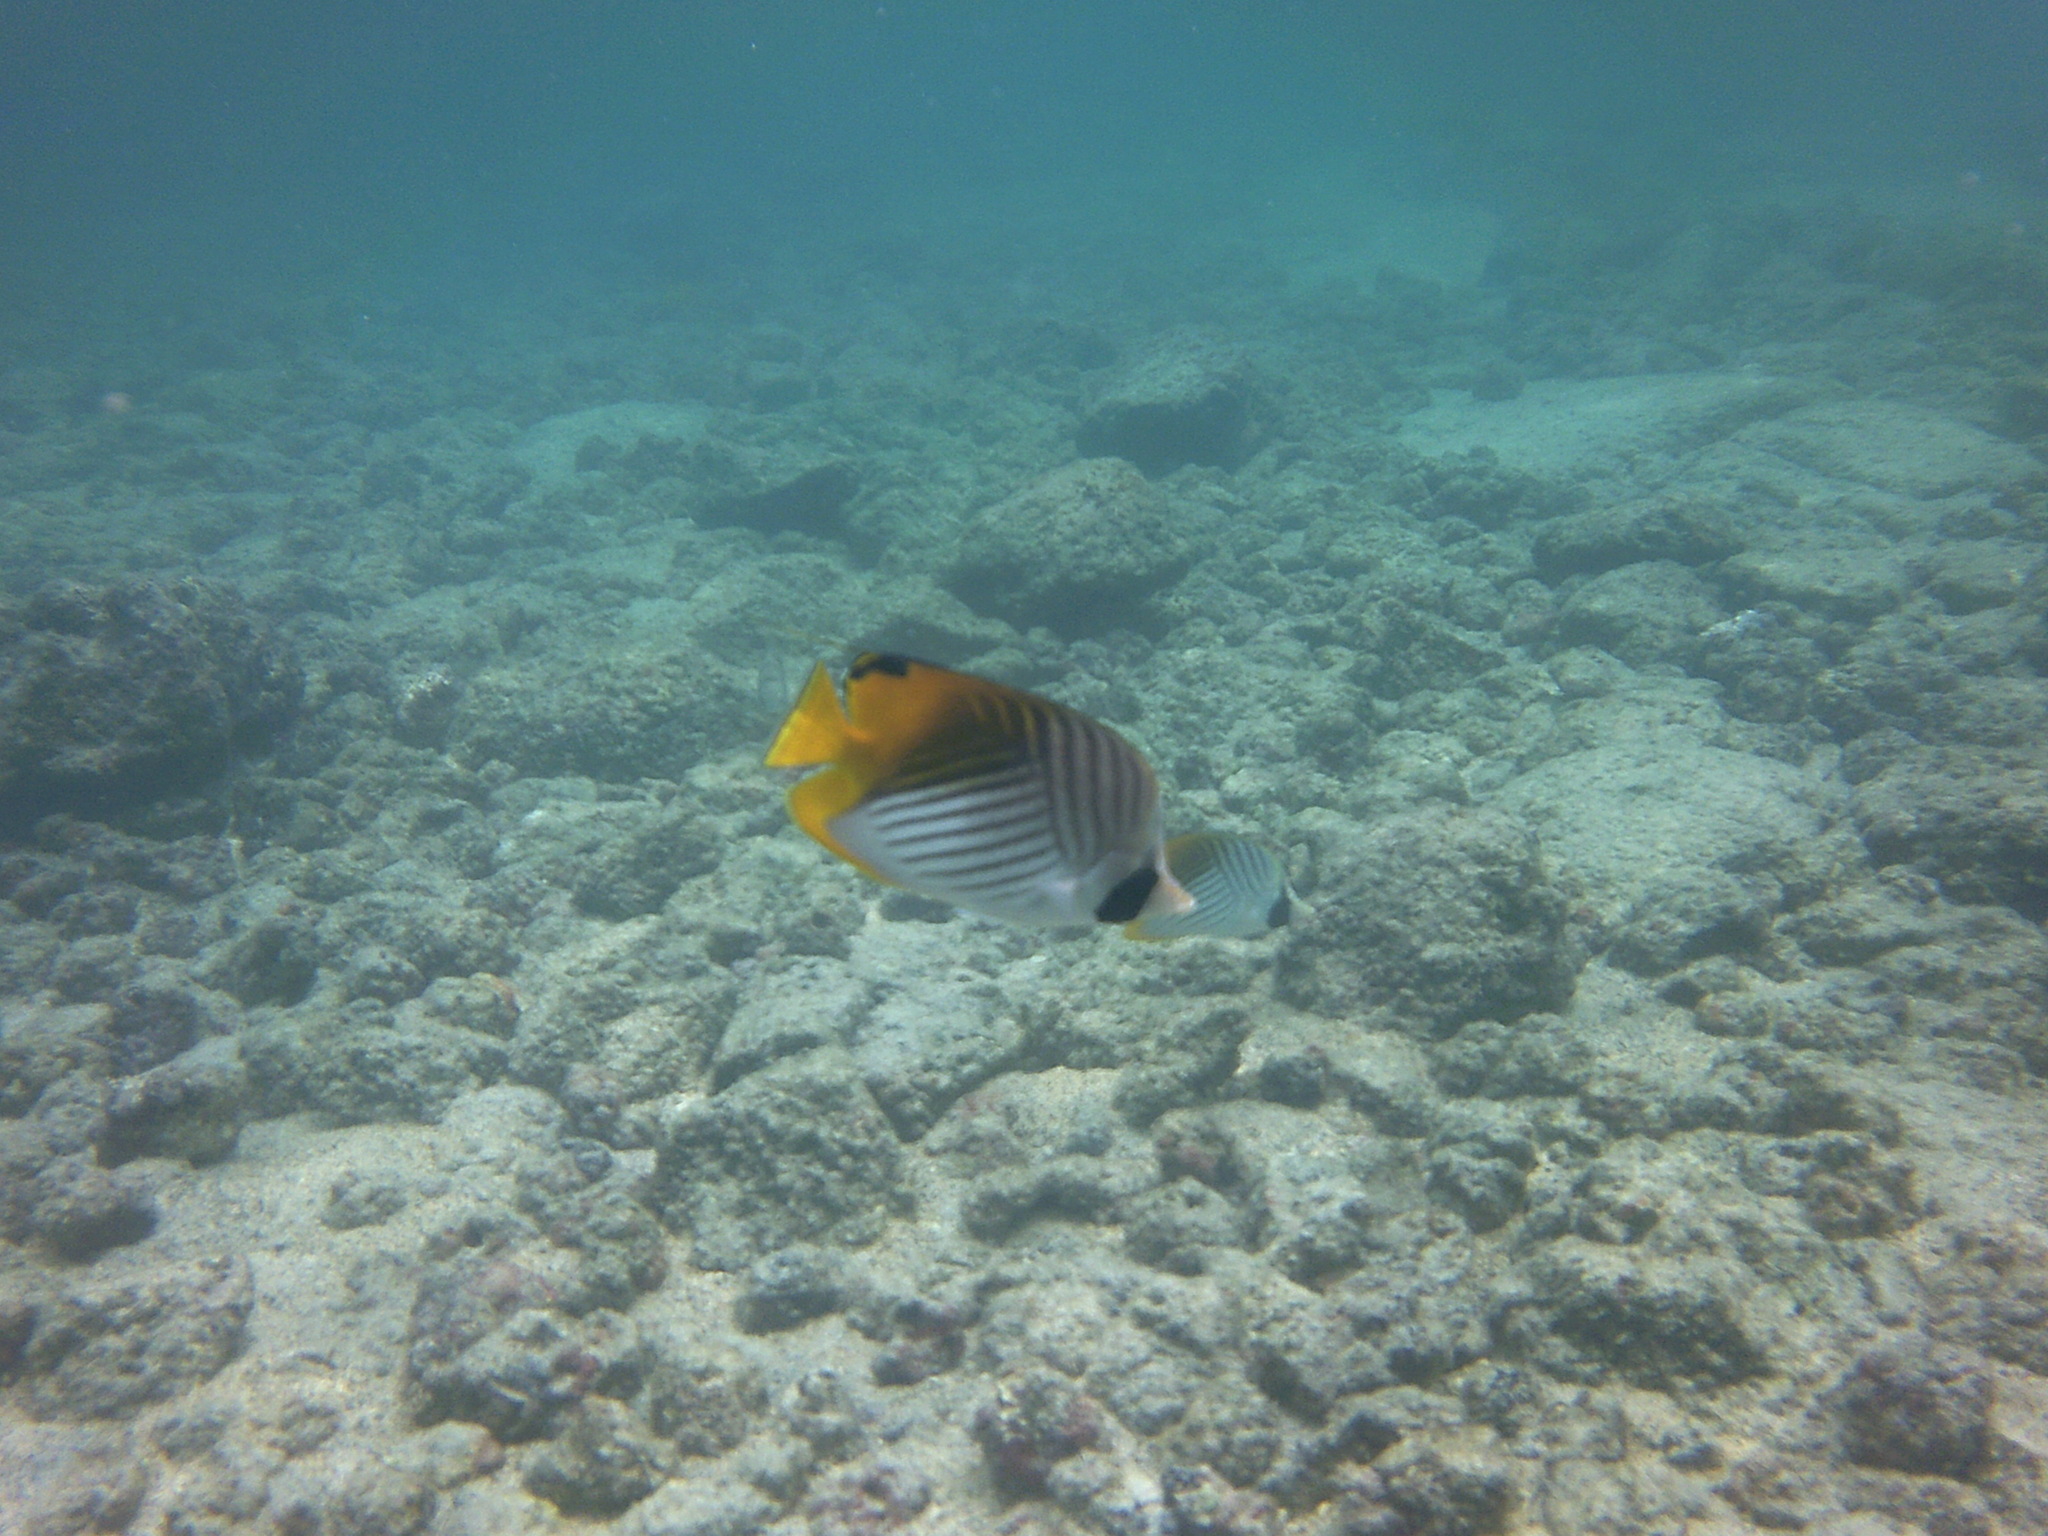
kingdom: Animalia
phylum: Chordata
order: Perciformes
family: Chaetodontidae
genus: Chaetodon
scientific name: Chaetodon auriga
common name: Threadfin butterflyfish
